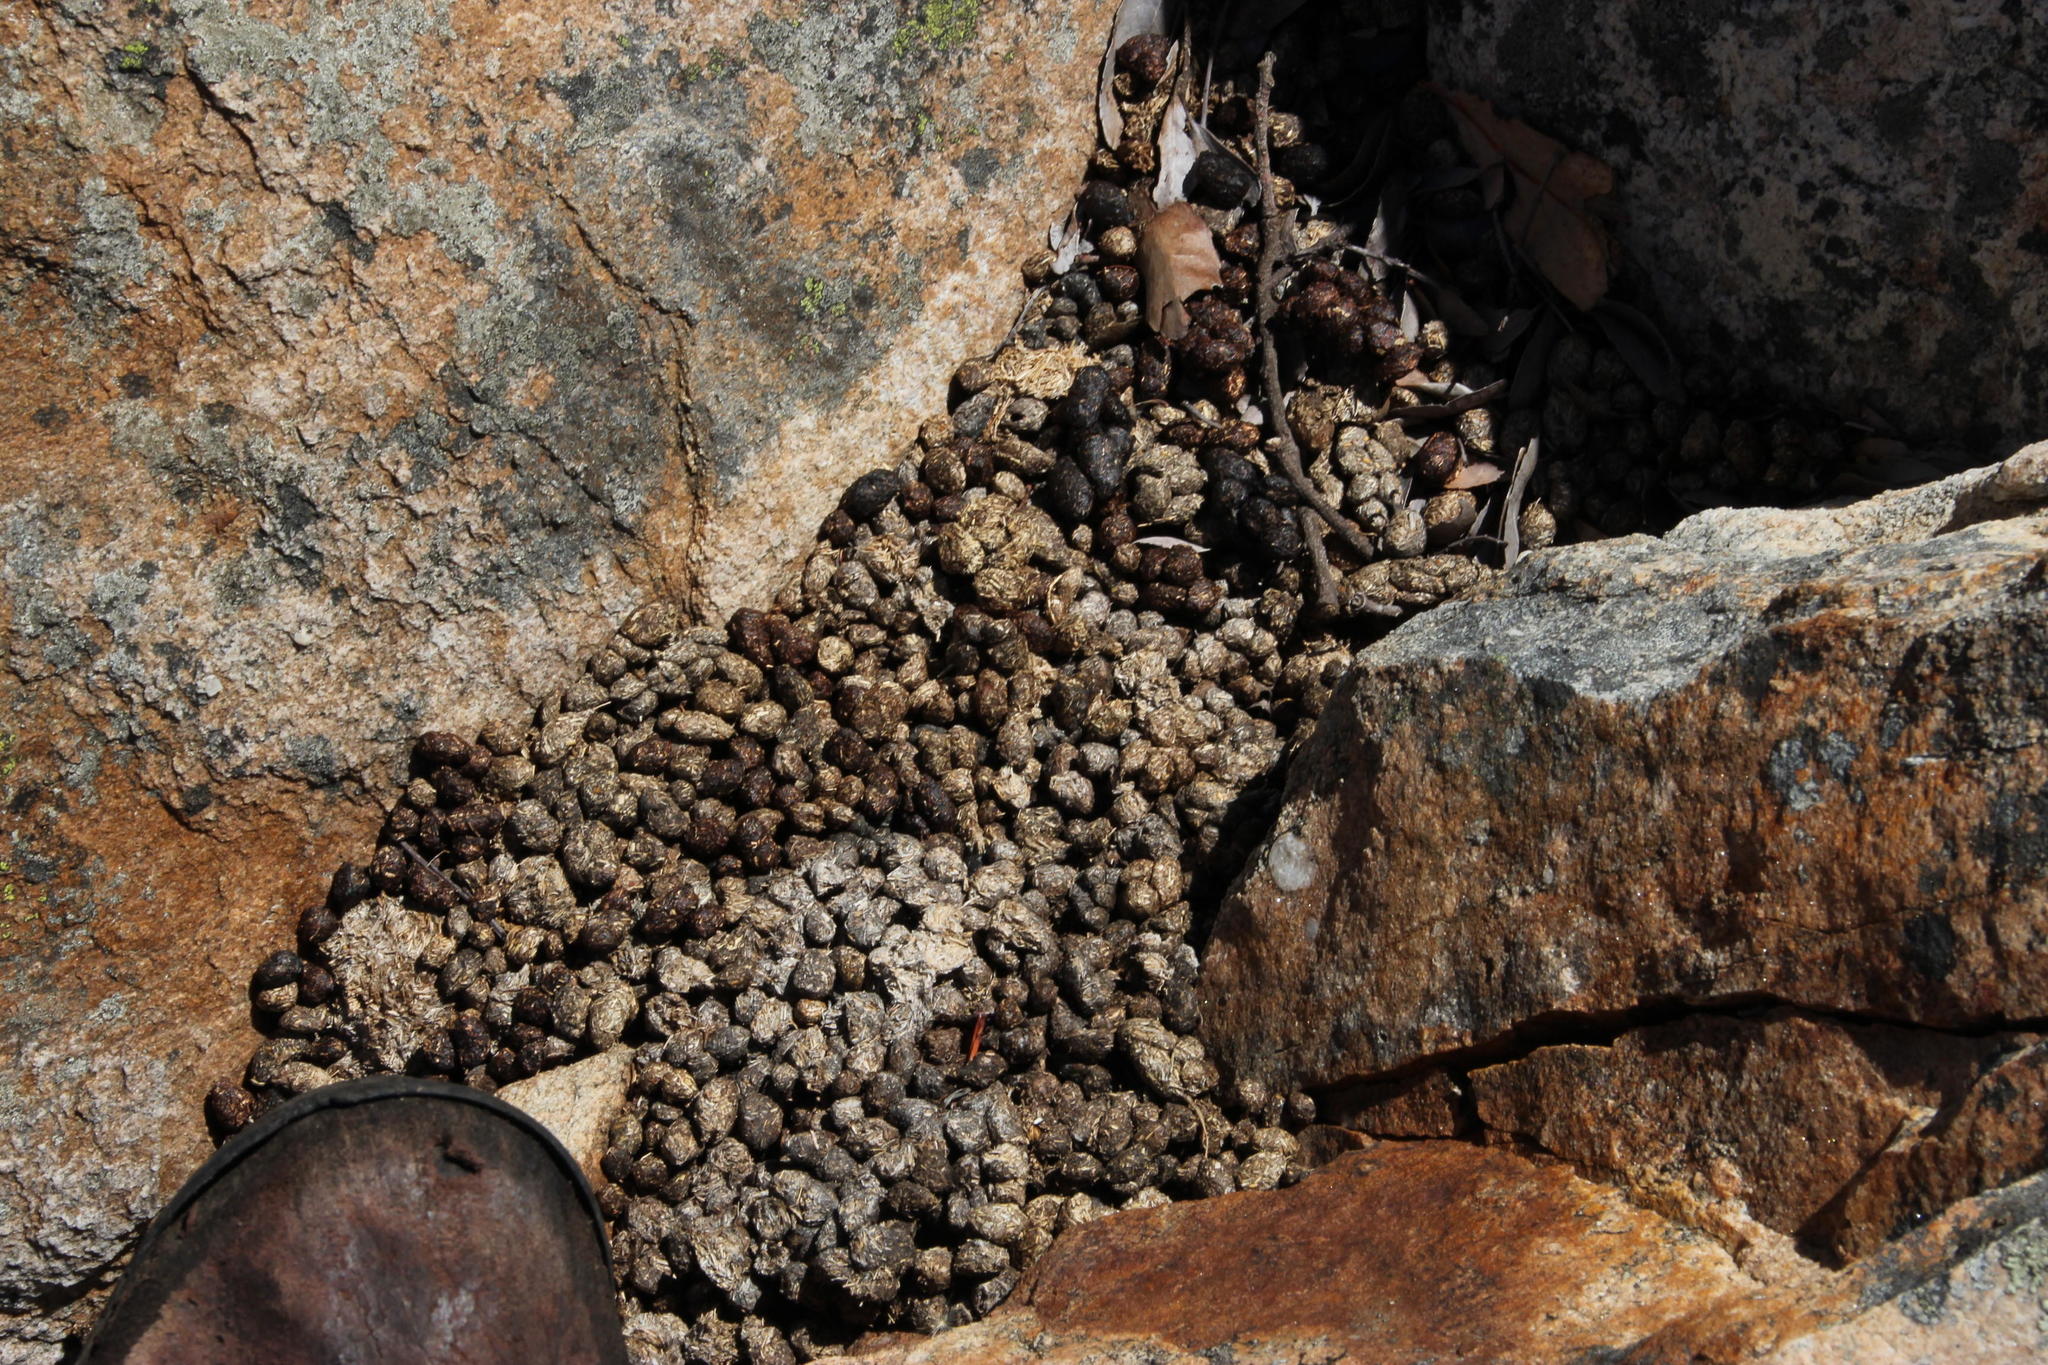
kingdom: Animalia
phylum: Chordata
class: Mammalia
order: Hyracoidea
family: Procaviidae
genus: Procavia
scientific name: Procavia capensis
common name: Rock hyrax
